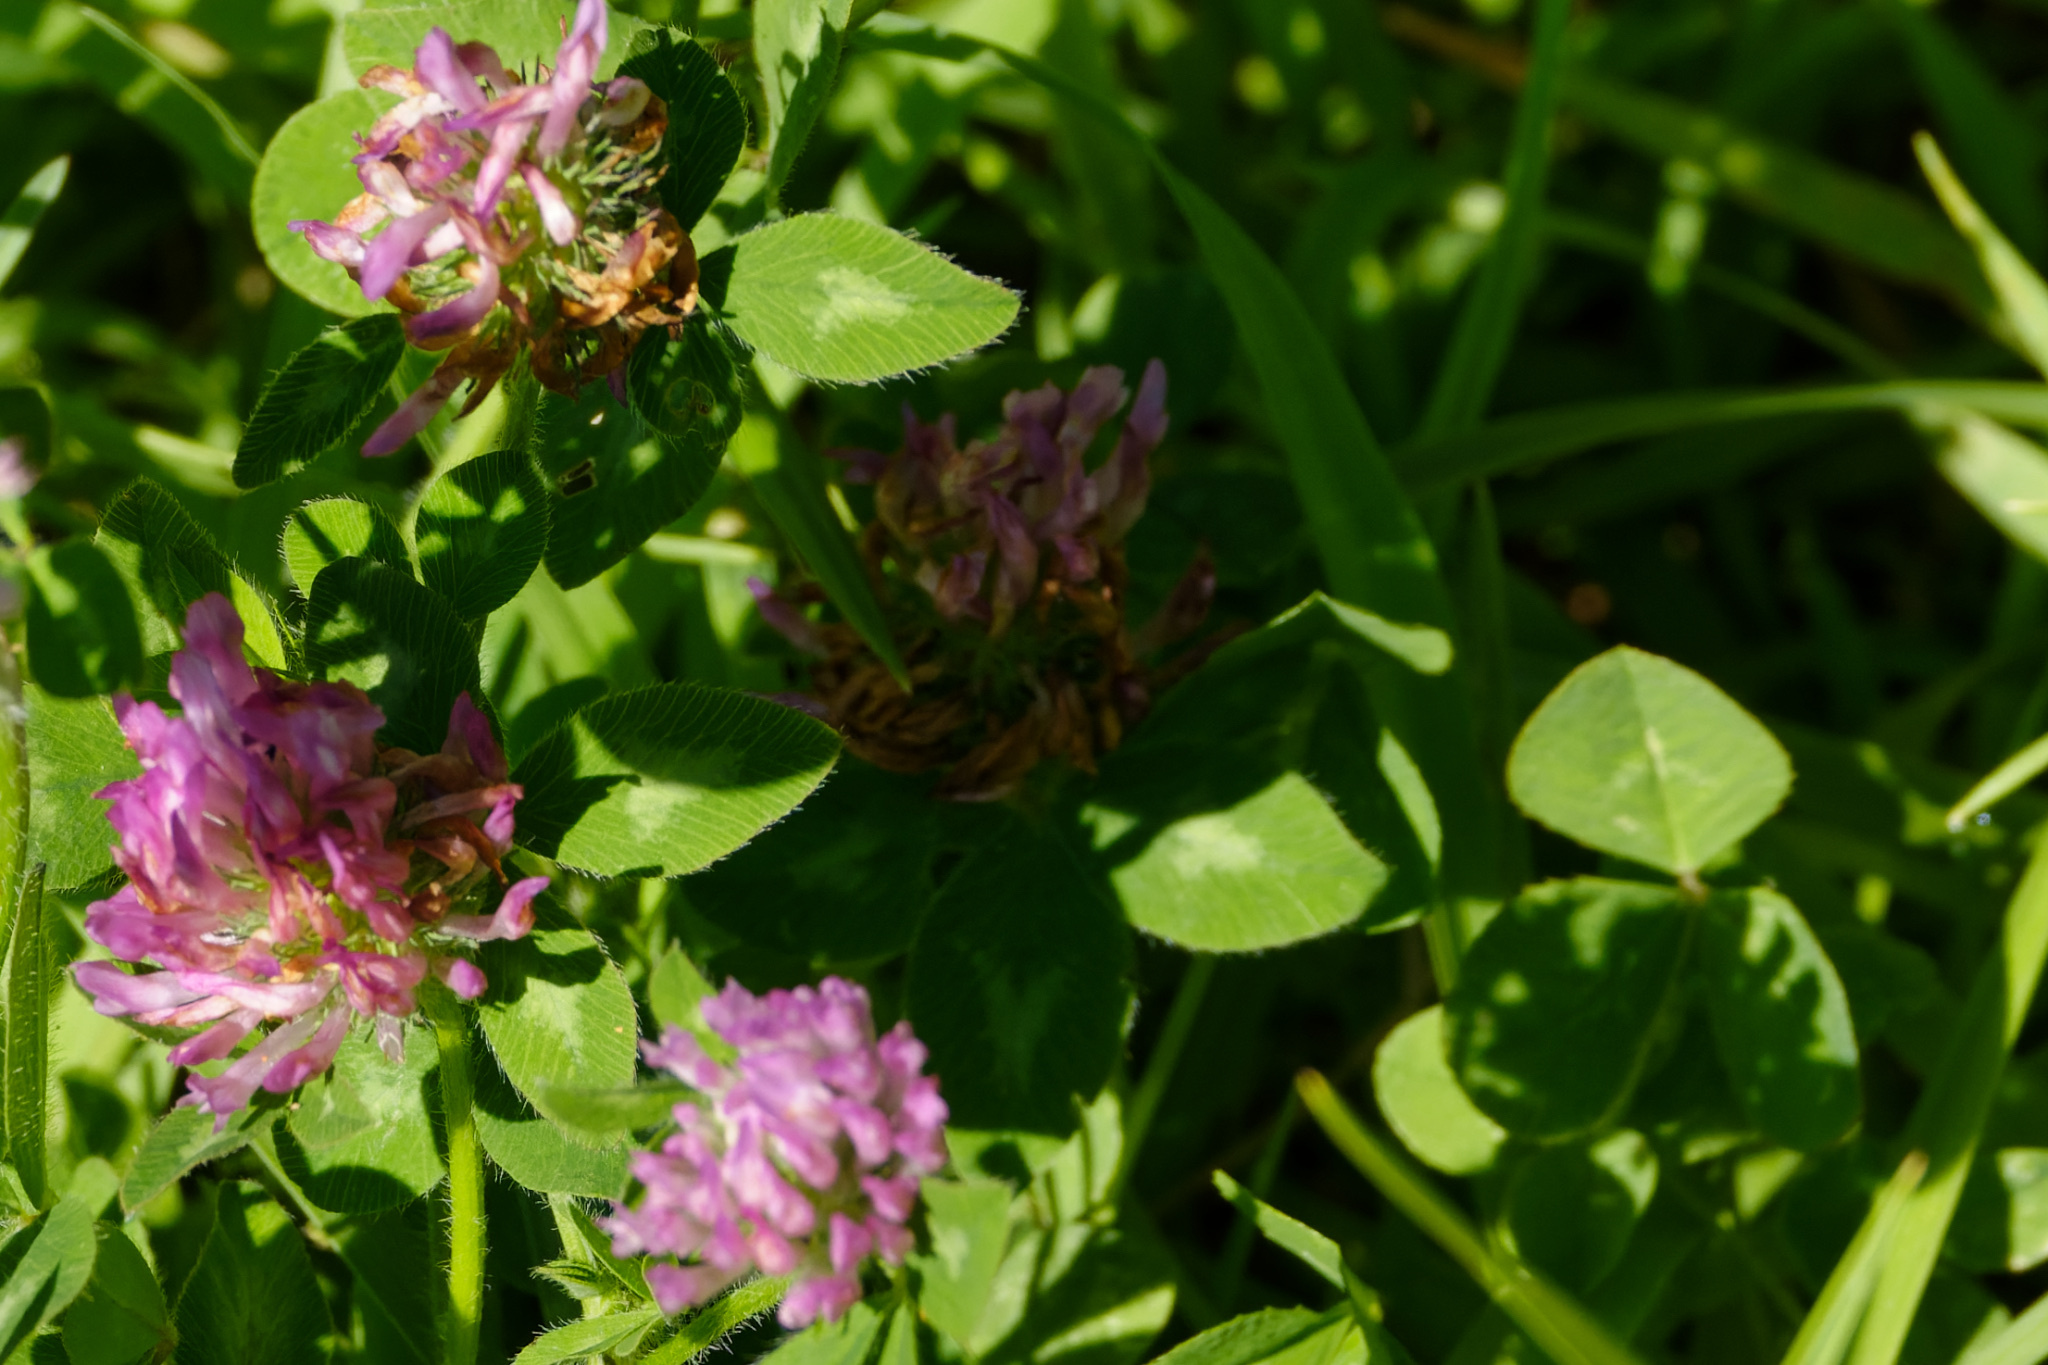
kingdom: Plantae
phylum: Tracheophyta
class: Magnoliopsida
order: Fabales
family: Fabaceae
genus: Trifolium
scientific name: Trifolium pratense
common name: Red clover
